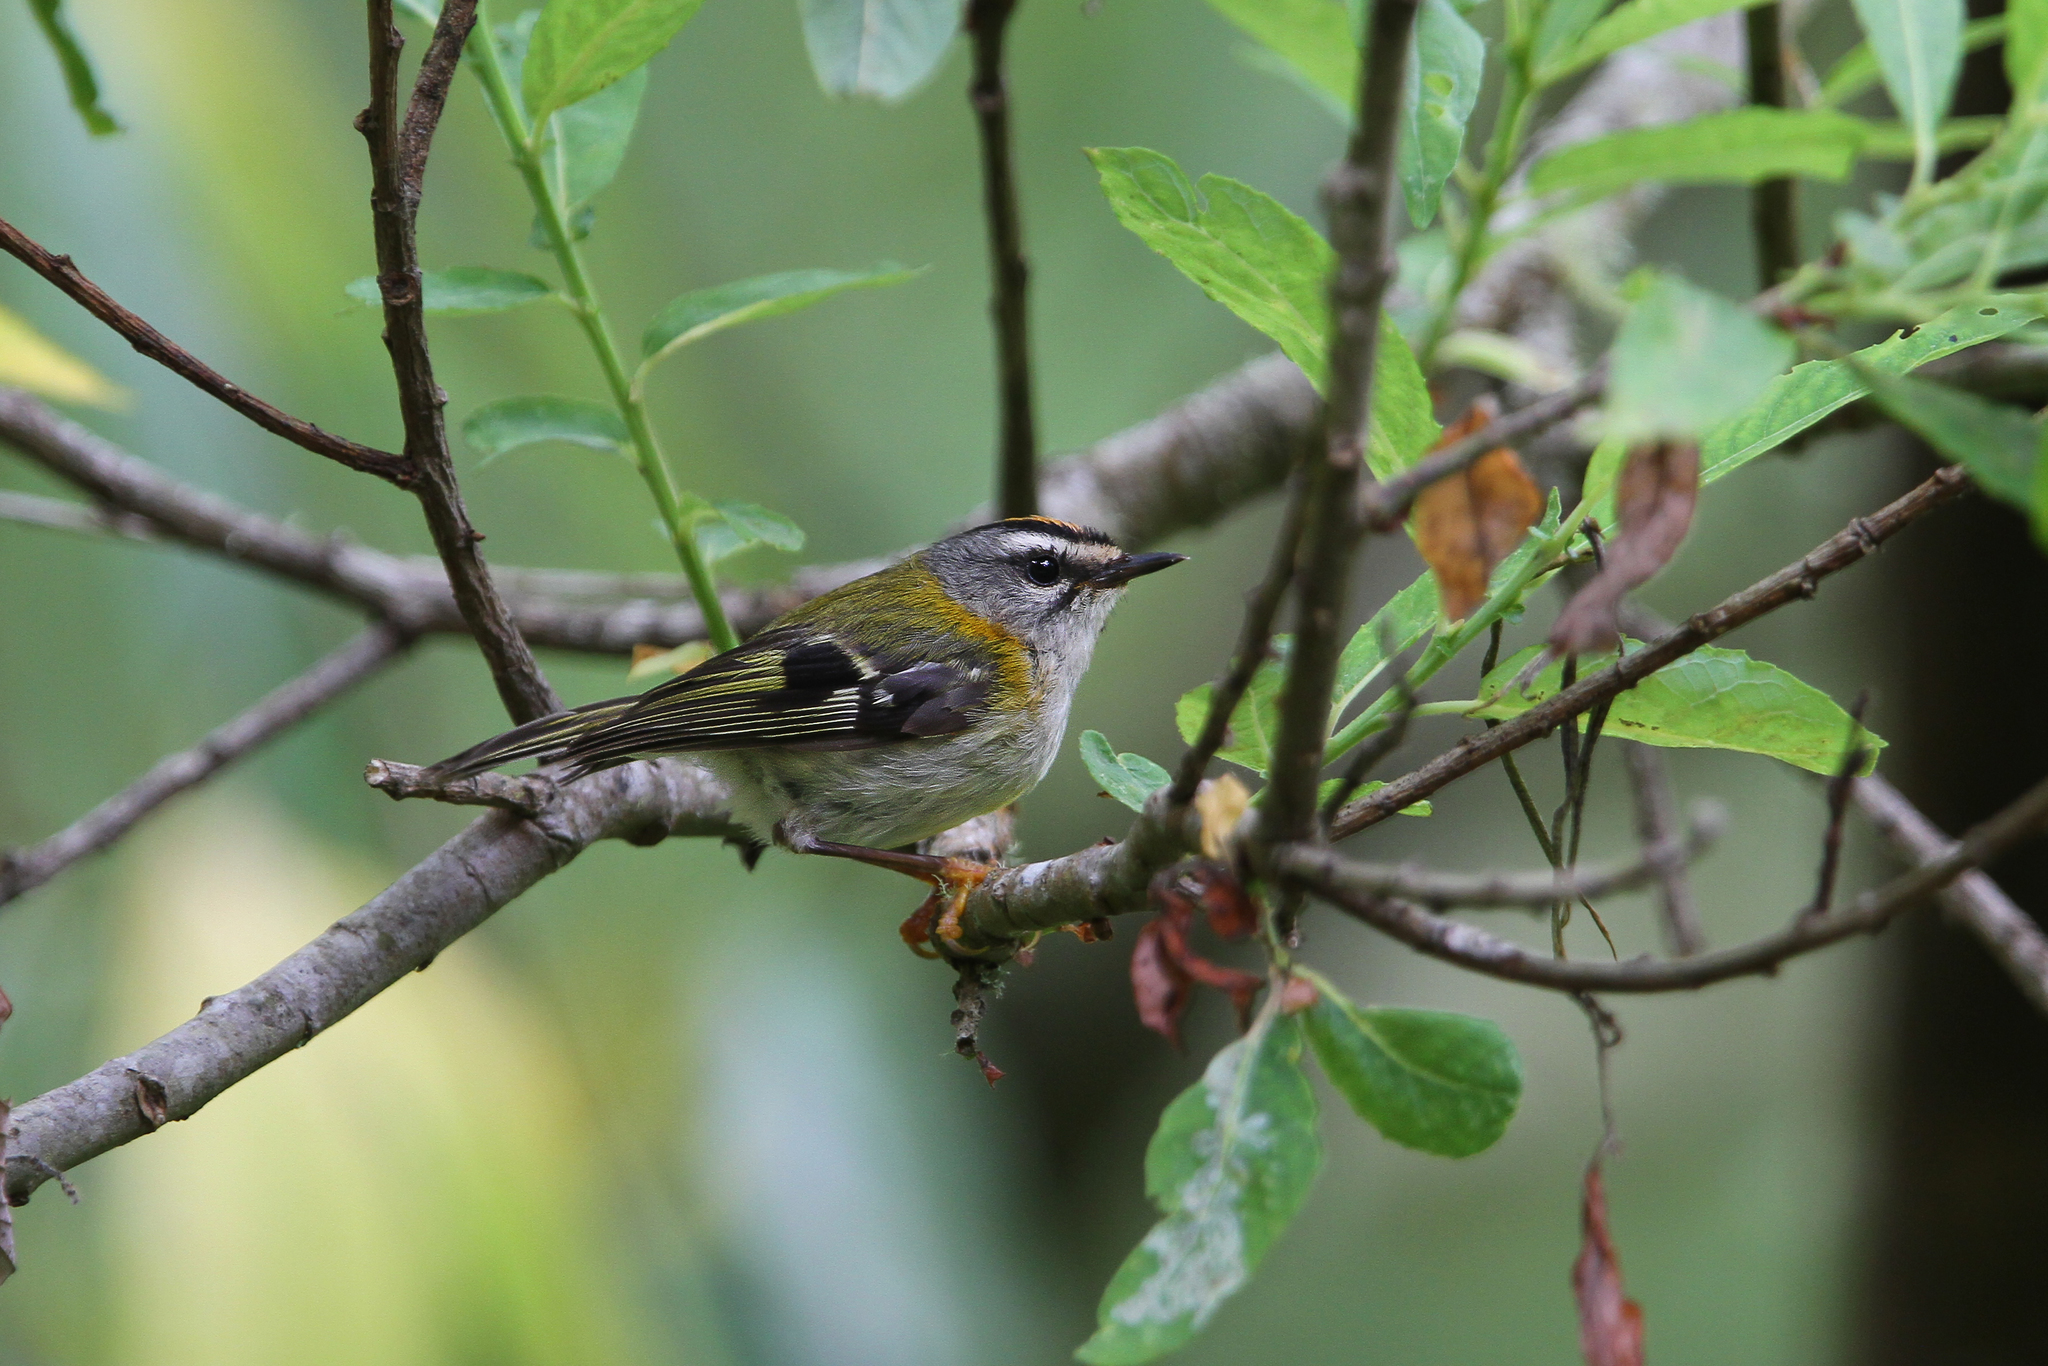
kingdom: Animalia
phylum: Chordata
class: Aves
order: Passeriformes
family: Regulidae
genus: Regulus
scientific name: Regulus madeirensis
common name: Madeira firecrest
